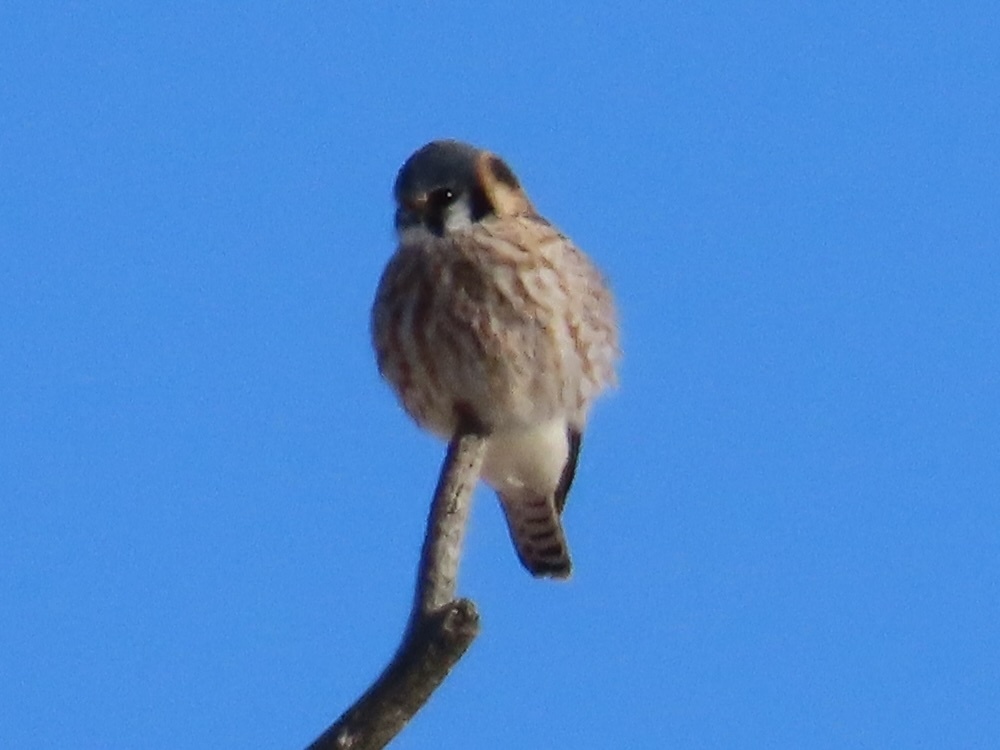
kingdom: Animalia
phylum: Chordata
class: Aves
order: Falconiformes
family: Falconidae
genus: Falco
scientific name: Falco sparverius
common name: American kestrel
